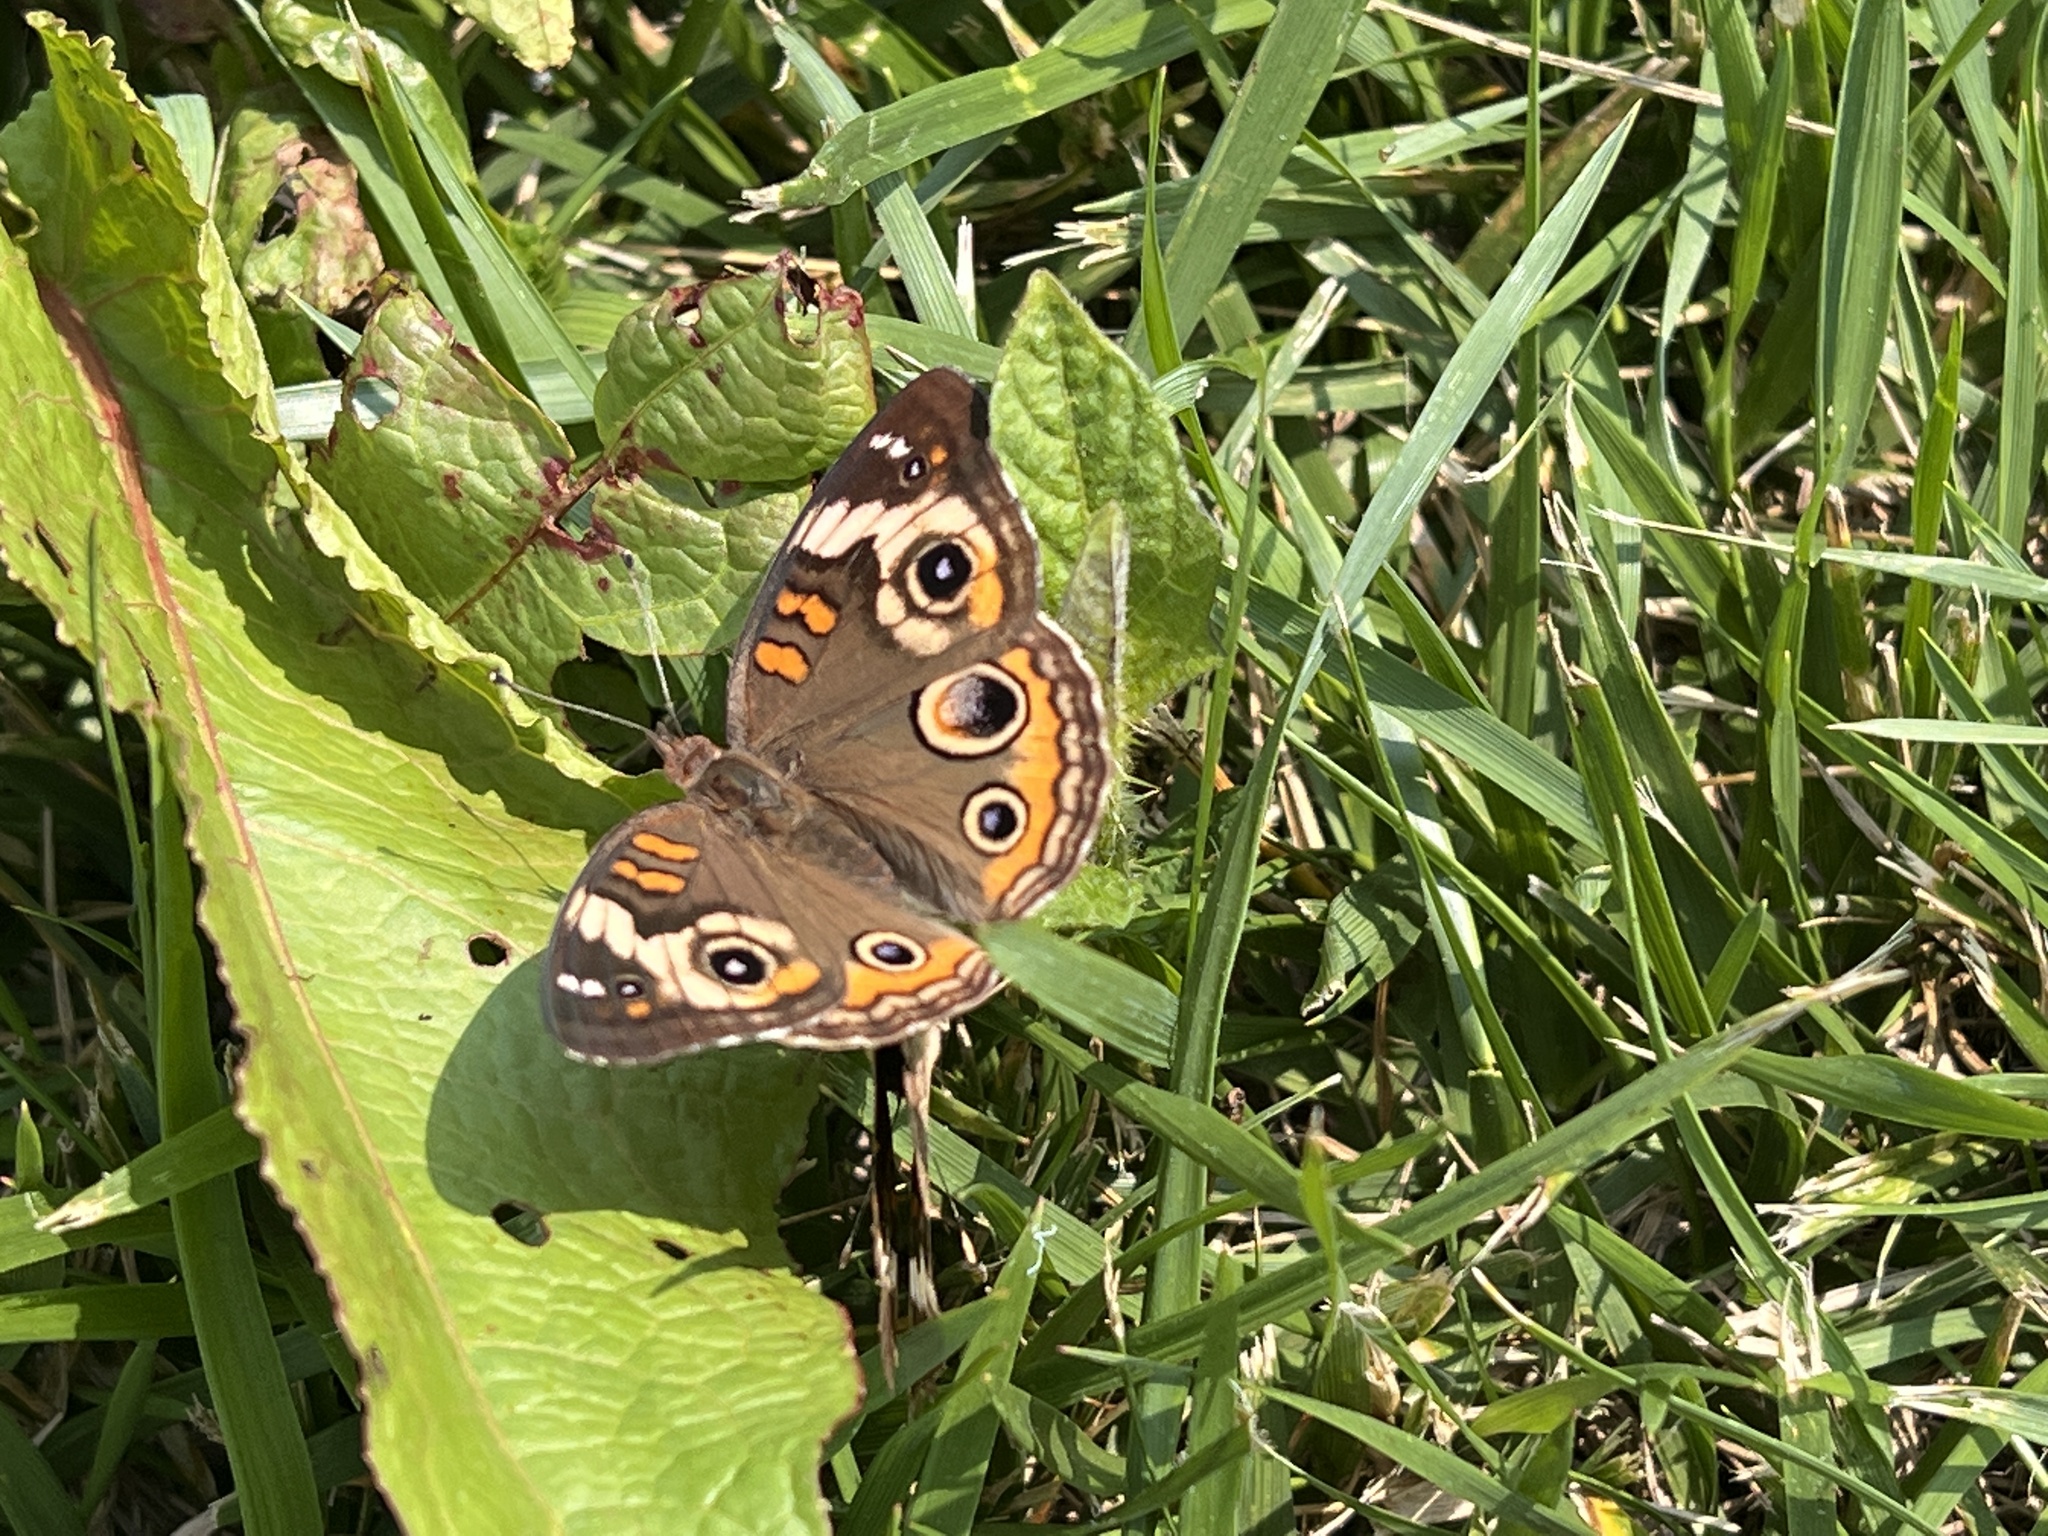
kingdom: Animalia
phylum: Arthropoda
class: Insecta
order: Lepidoptera
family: Nymphalidae
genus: Junonia
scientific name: Junonia coenia
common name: Common buckeye
